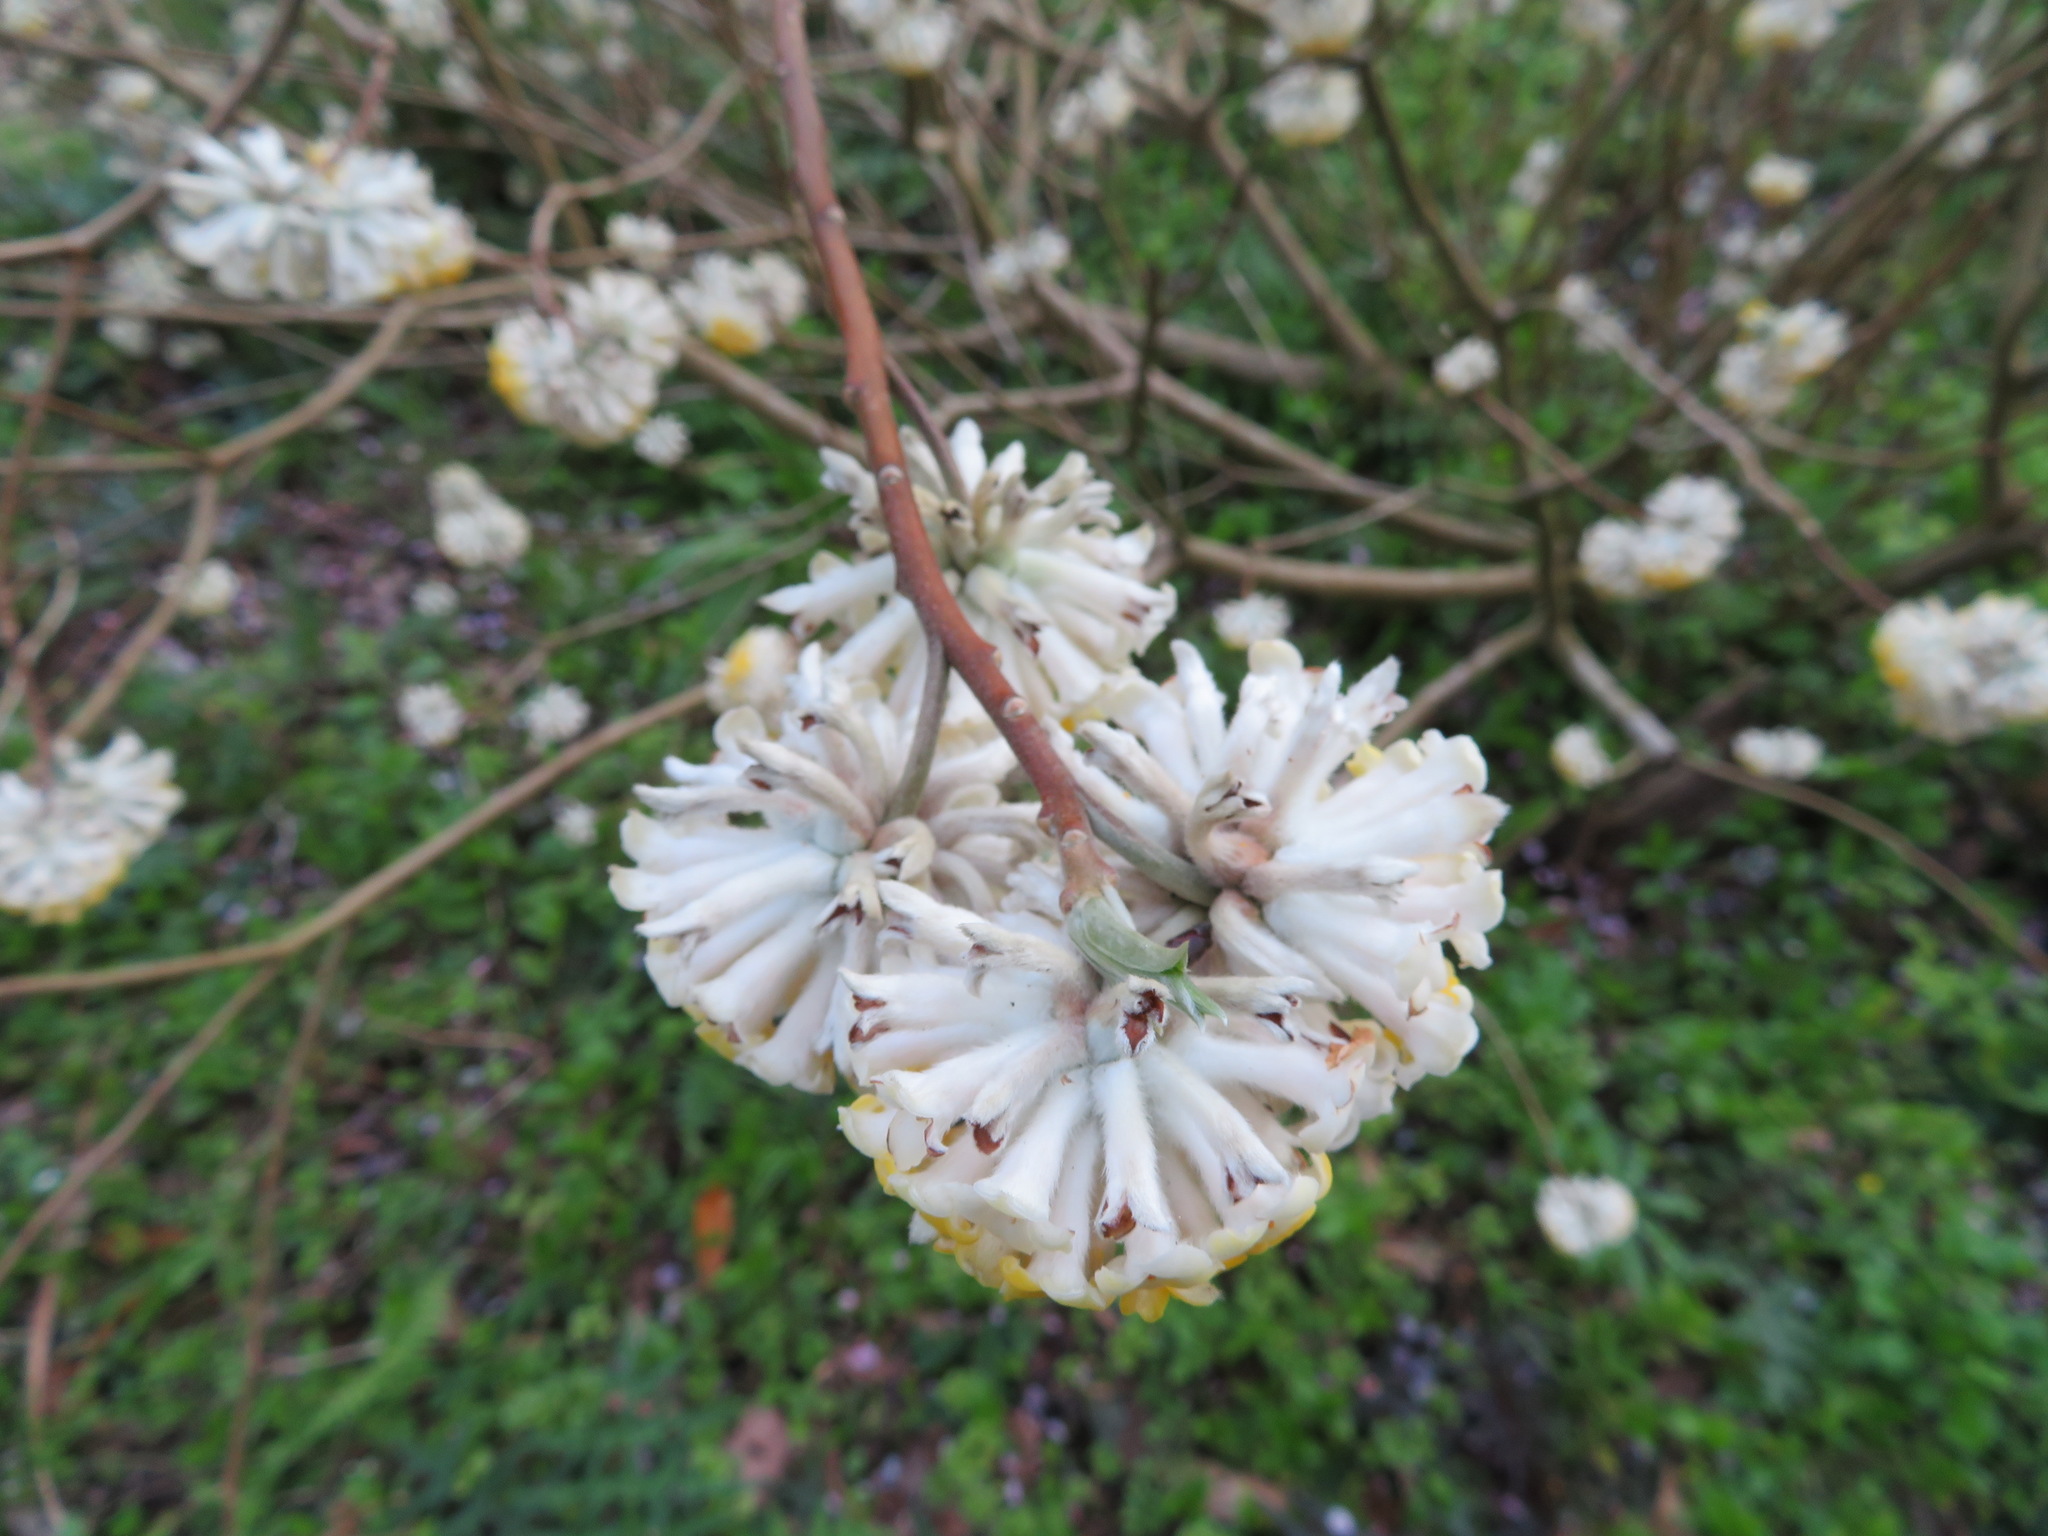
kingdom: Plantae
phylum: Tracheophyta
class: Magnoliopsida
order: Malvales
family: Thymelaeaceae
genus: Edgeworthia
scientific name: Edgeworthia chrysantha
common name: Oriental paperbush
